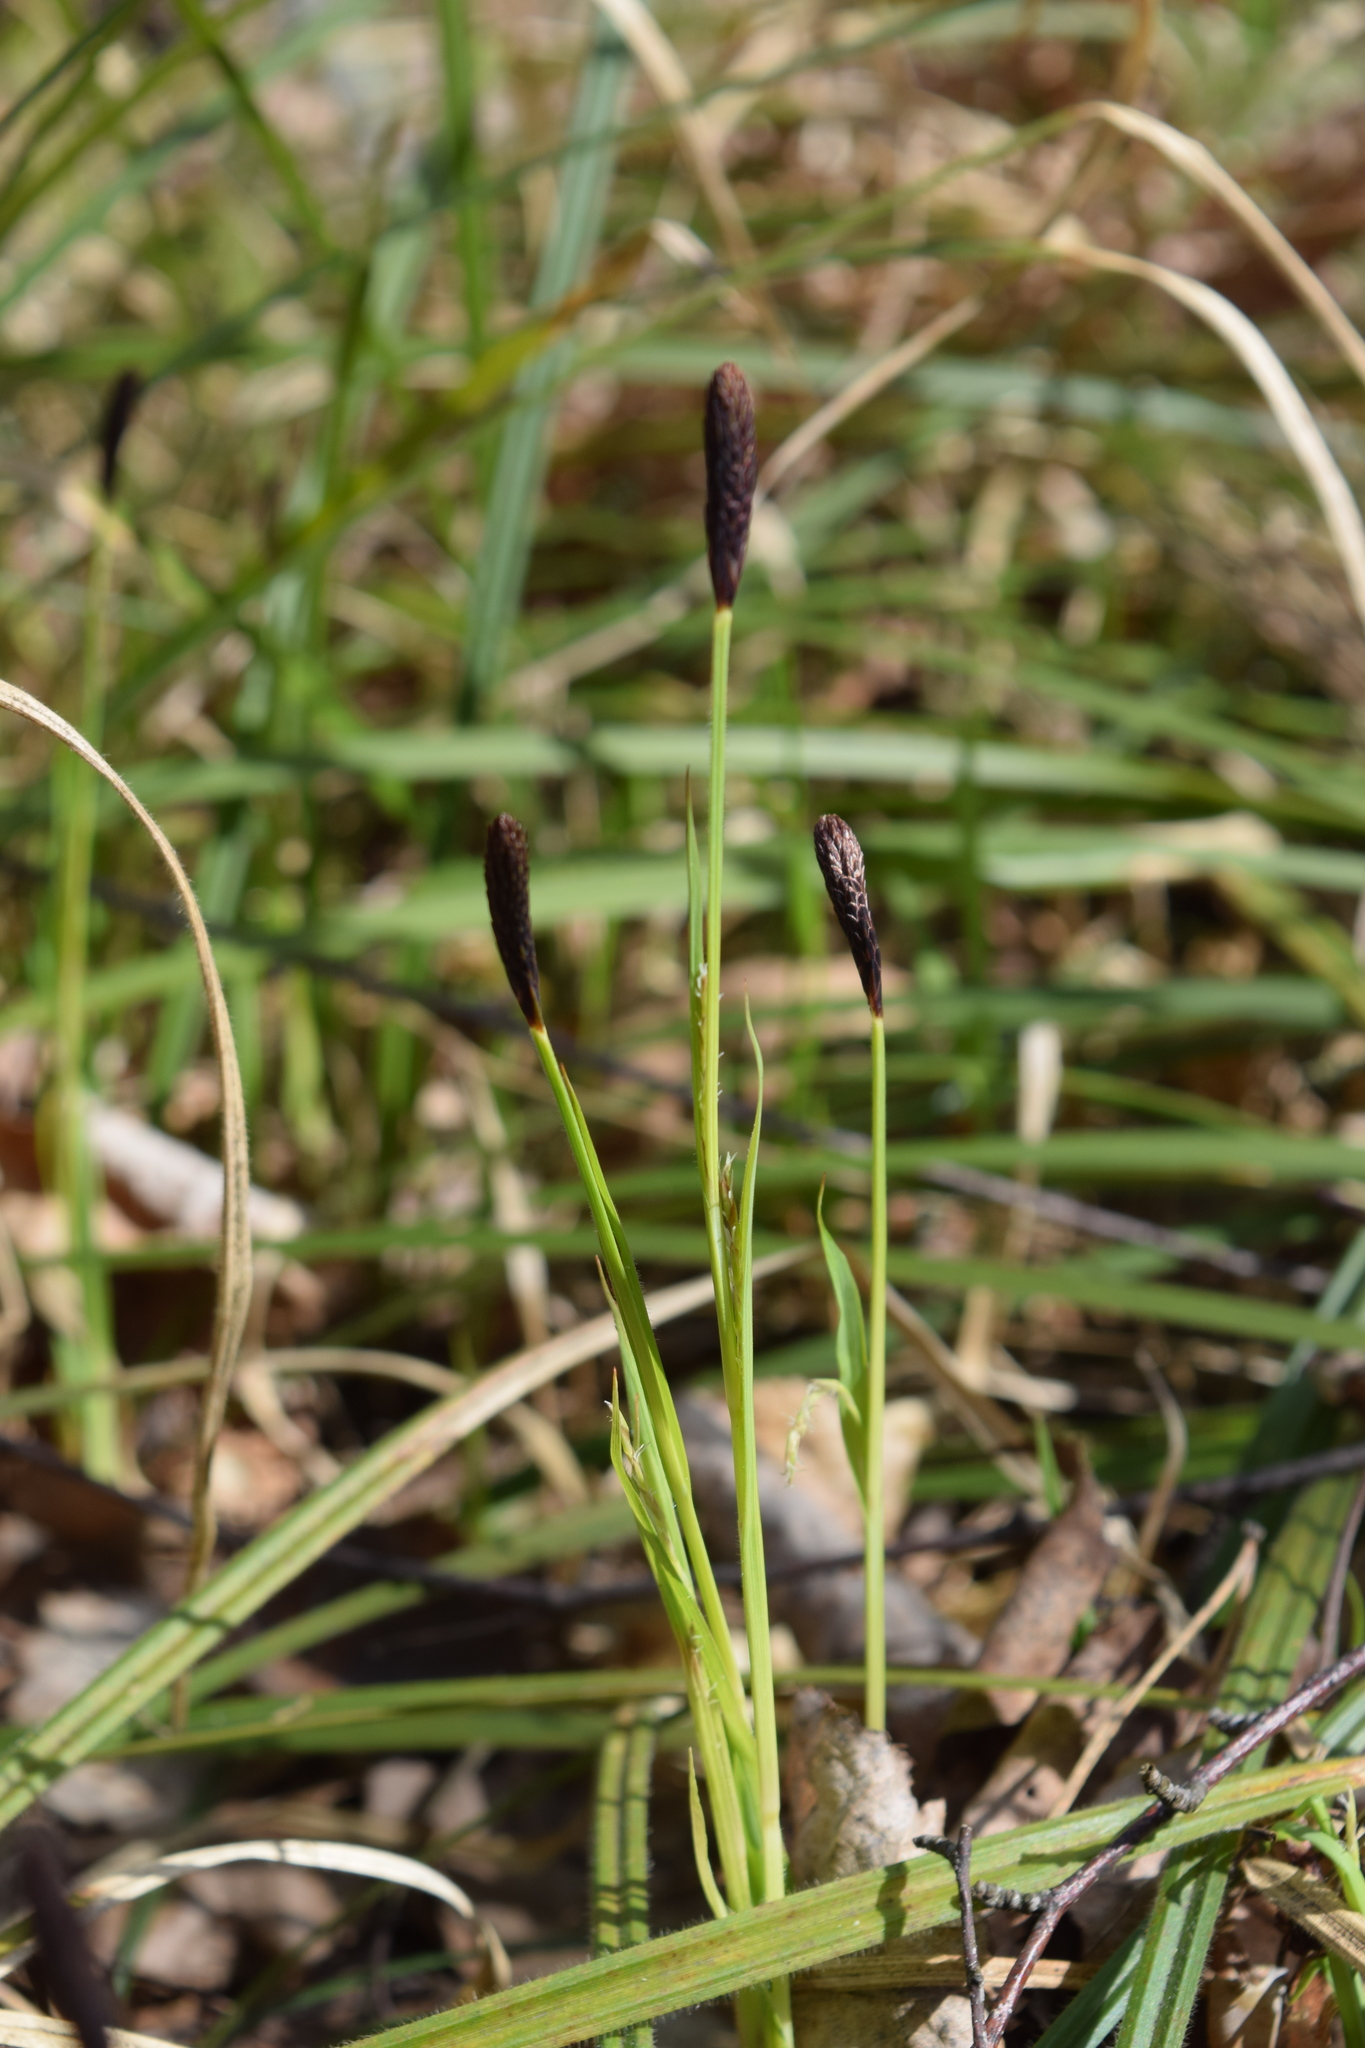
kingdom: Plantae
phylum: Tracheophyta
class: Liliopsida
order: Poales
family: Cyperaceae
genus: Carex
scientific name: Carex pilosa
